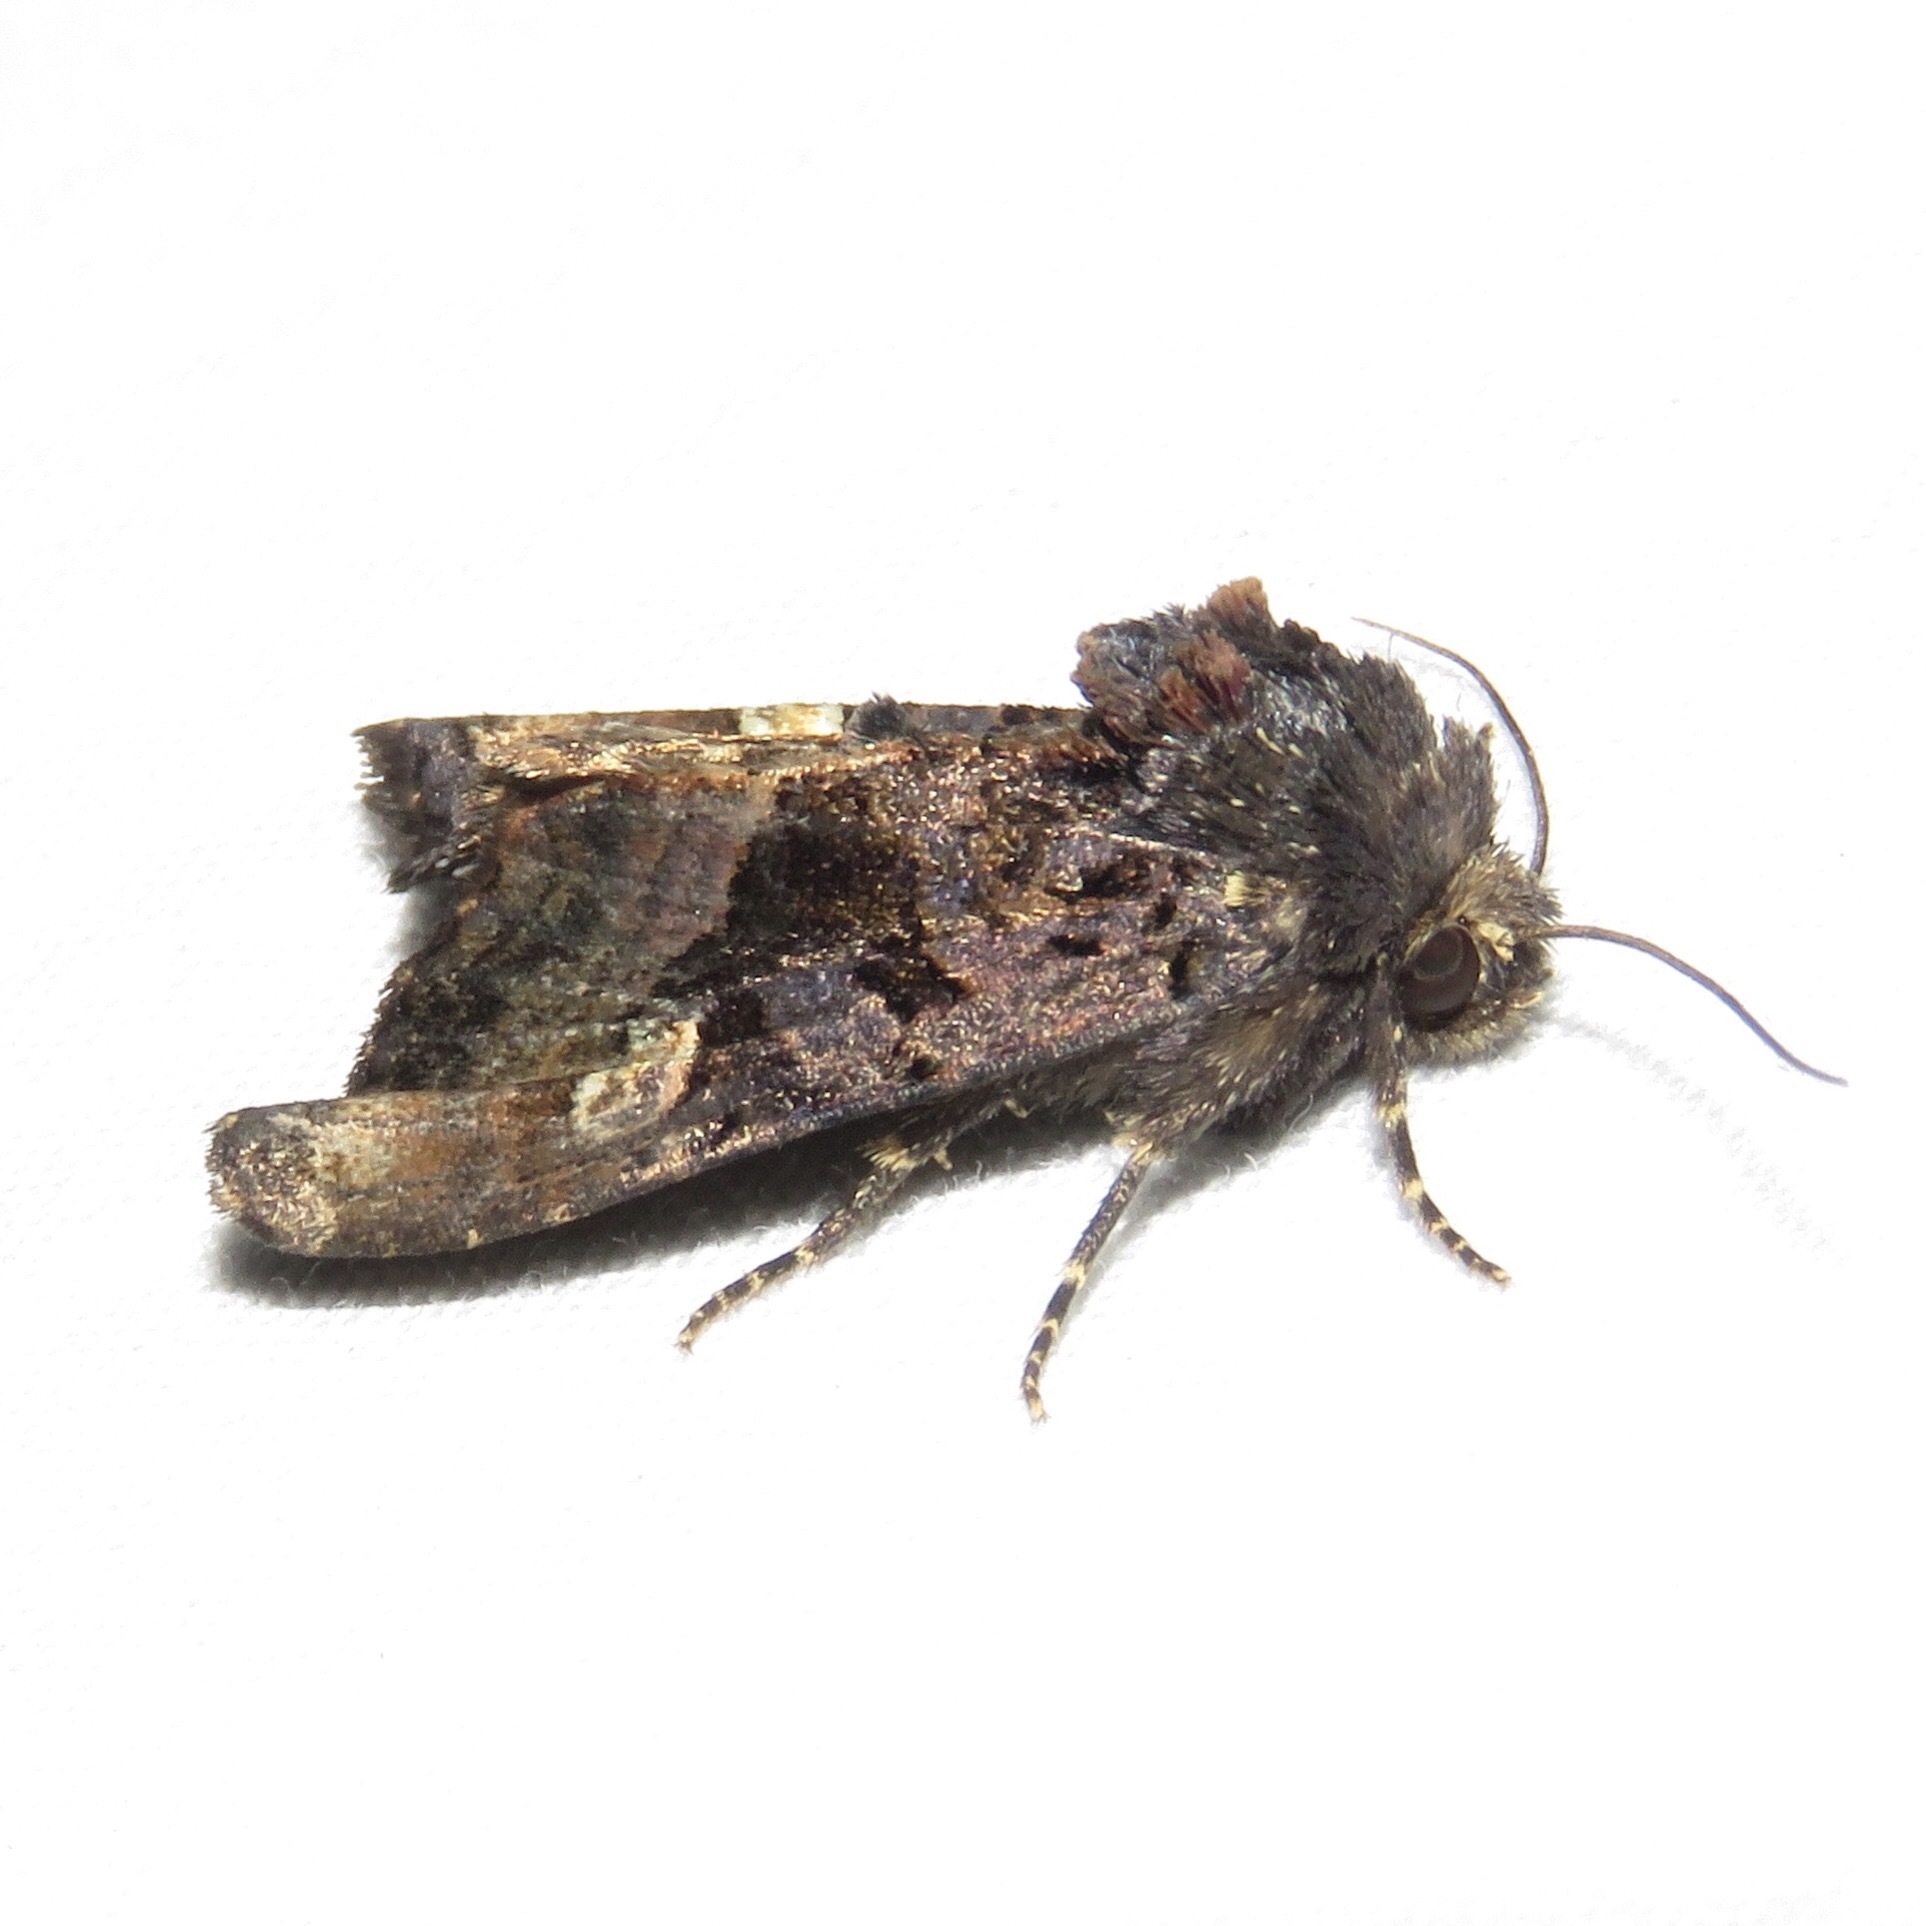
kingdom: Animalia
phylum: Arthropoda
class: Insecta
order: Lepidoptera
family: Noctuidae
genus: Euplexia
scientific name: Euplexia benesimilis
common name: American angle shades
